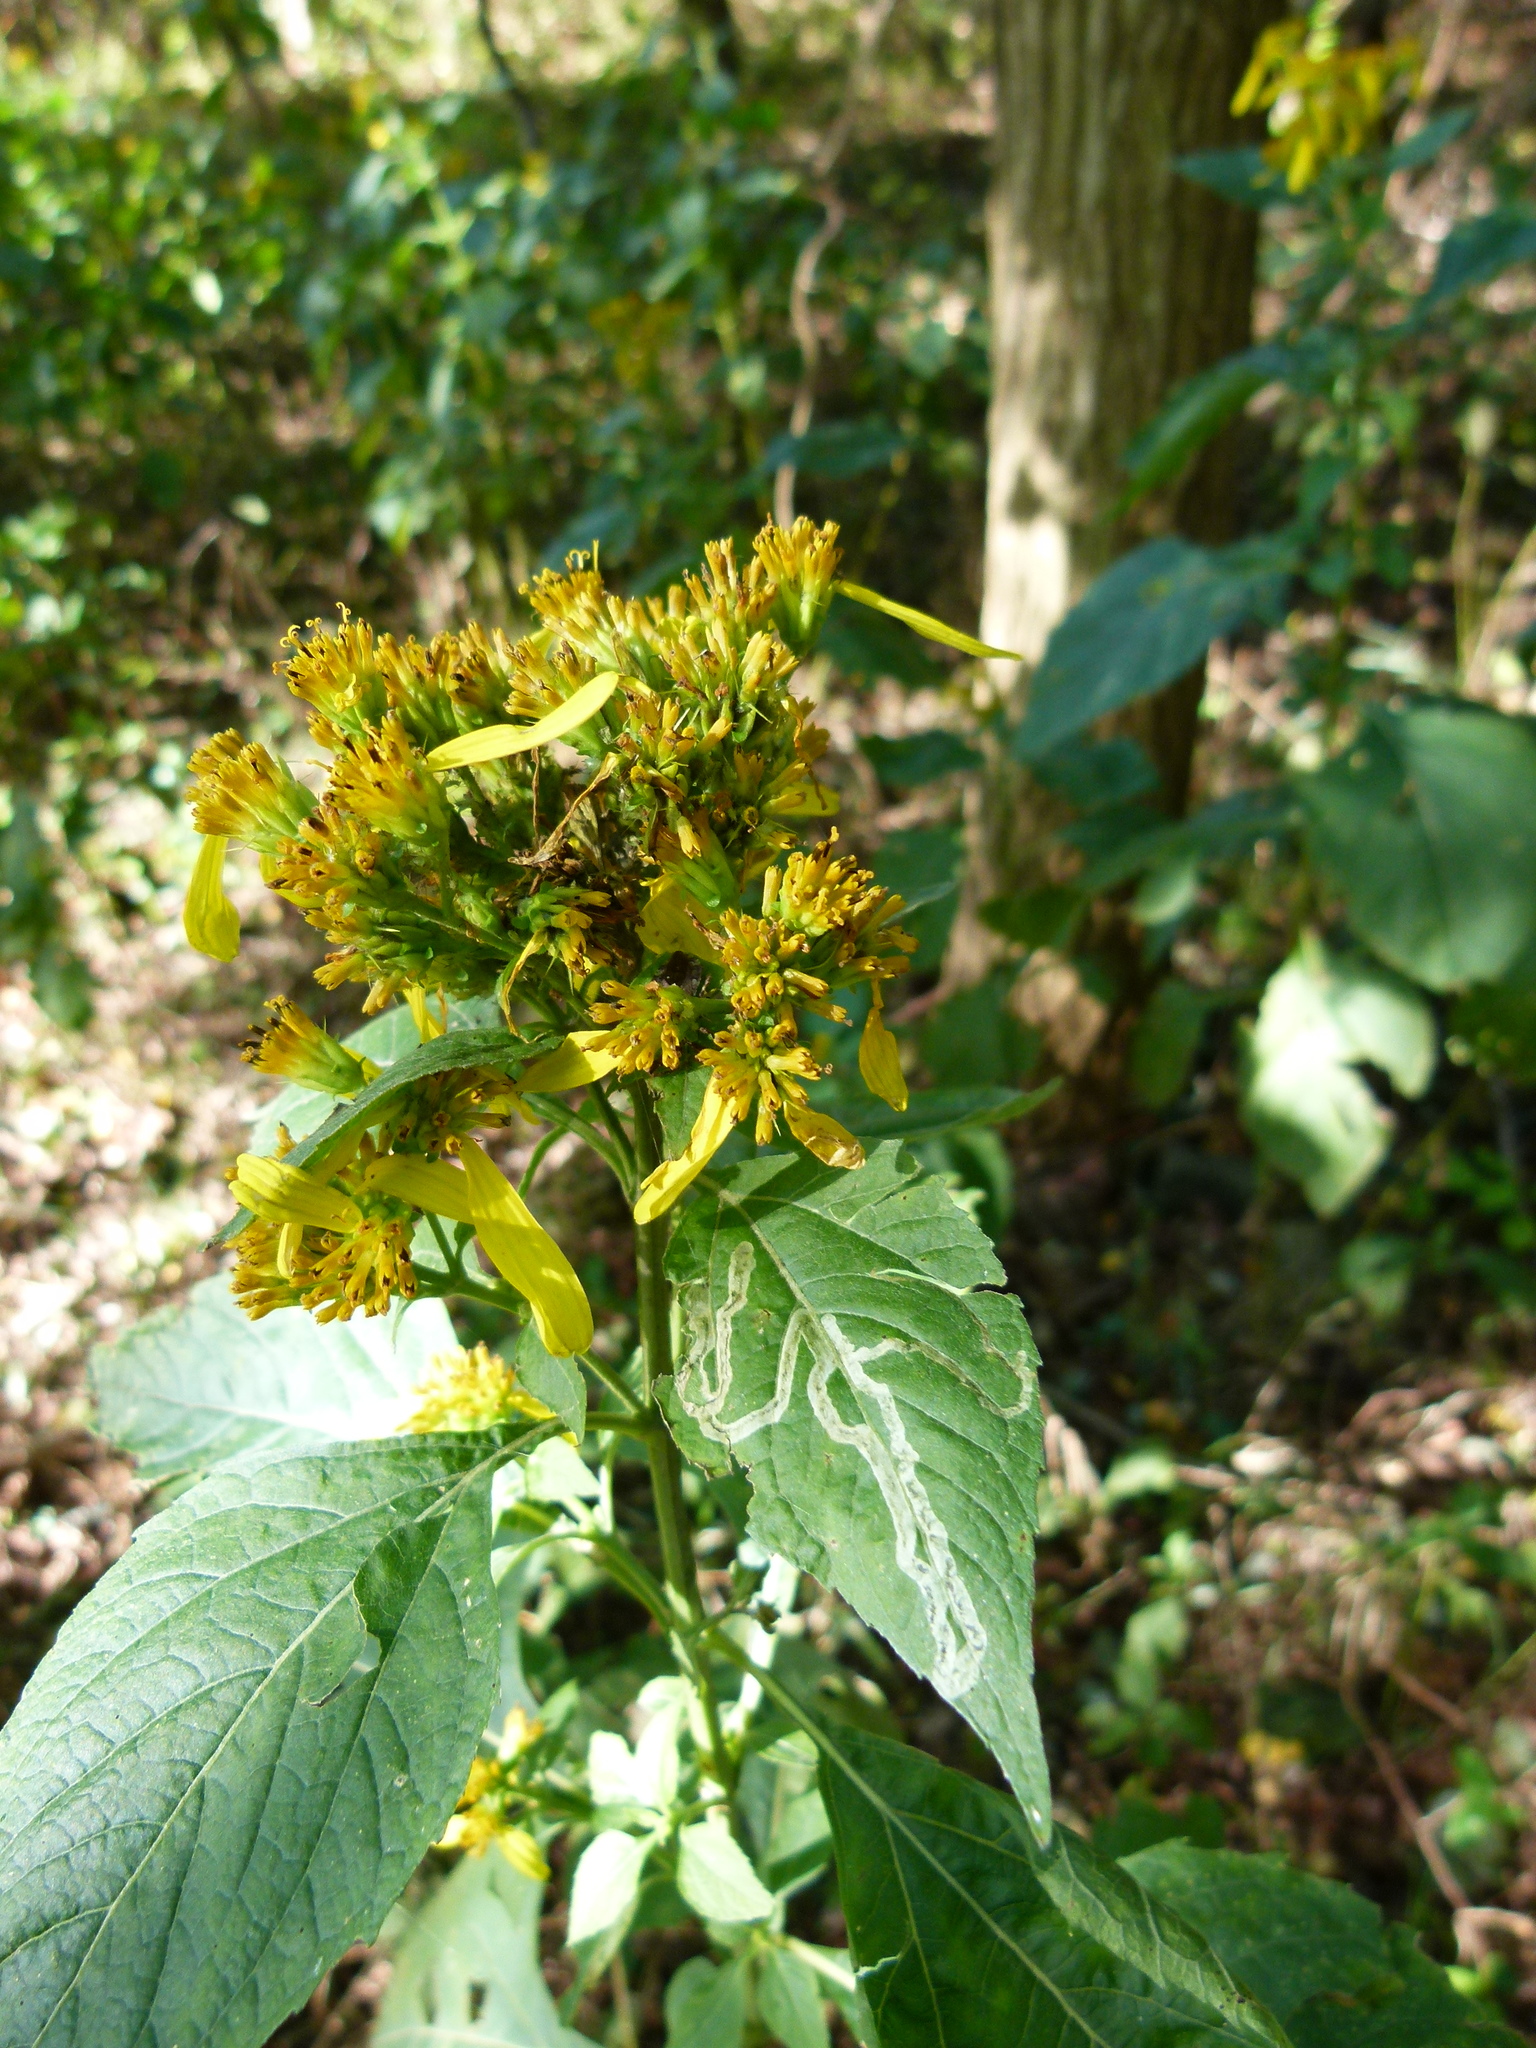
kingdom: Plantae
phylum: Tracheophyta
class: Magnoliopsida
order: Asterales
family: Asteraceae
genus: Verbesina
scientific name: Verbesina occidentalis
